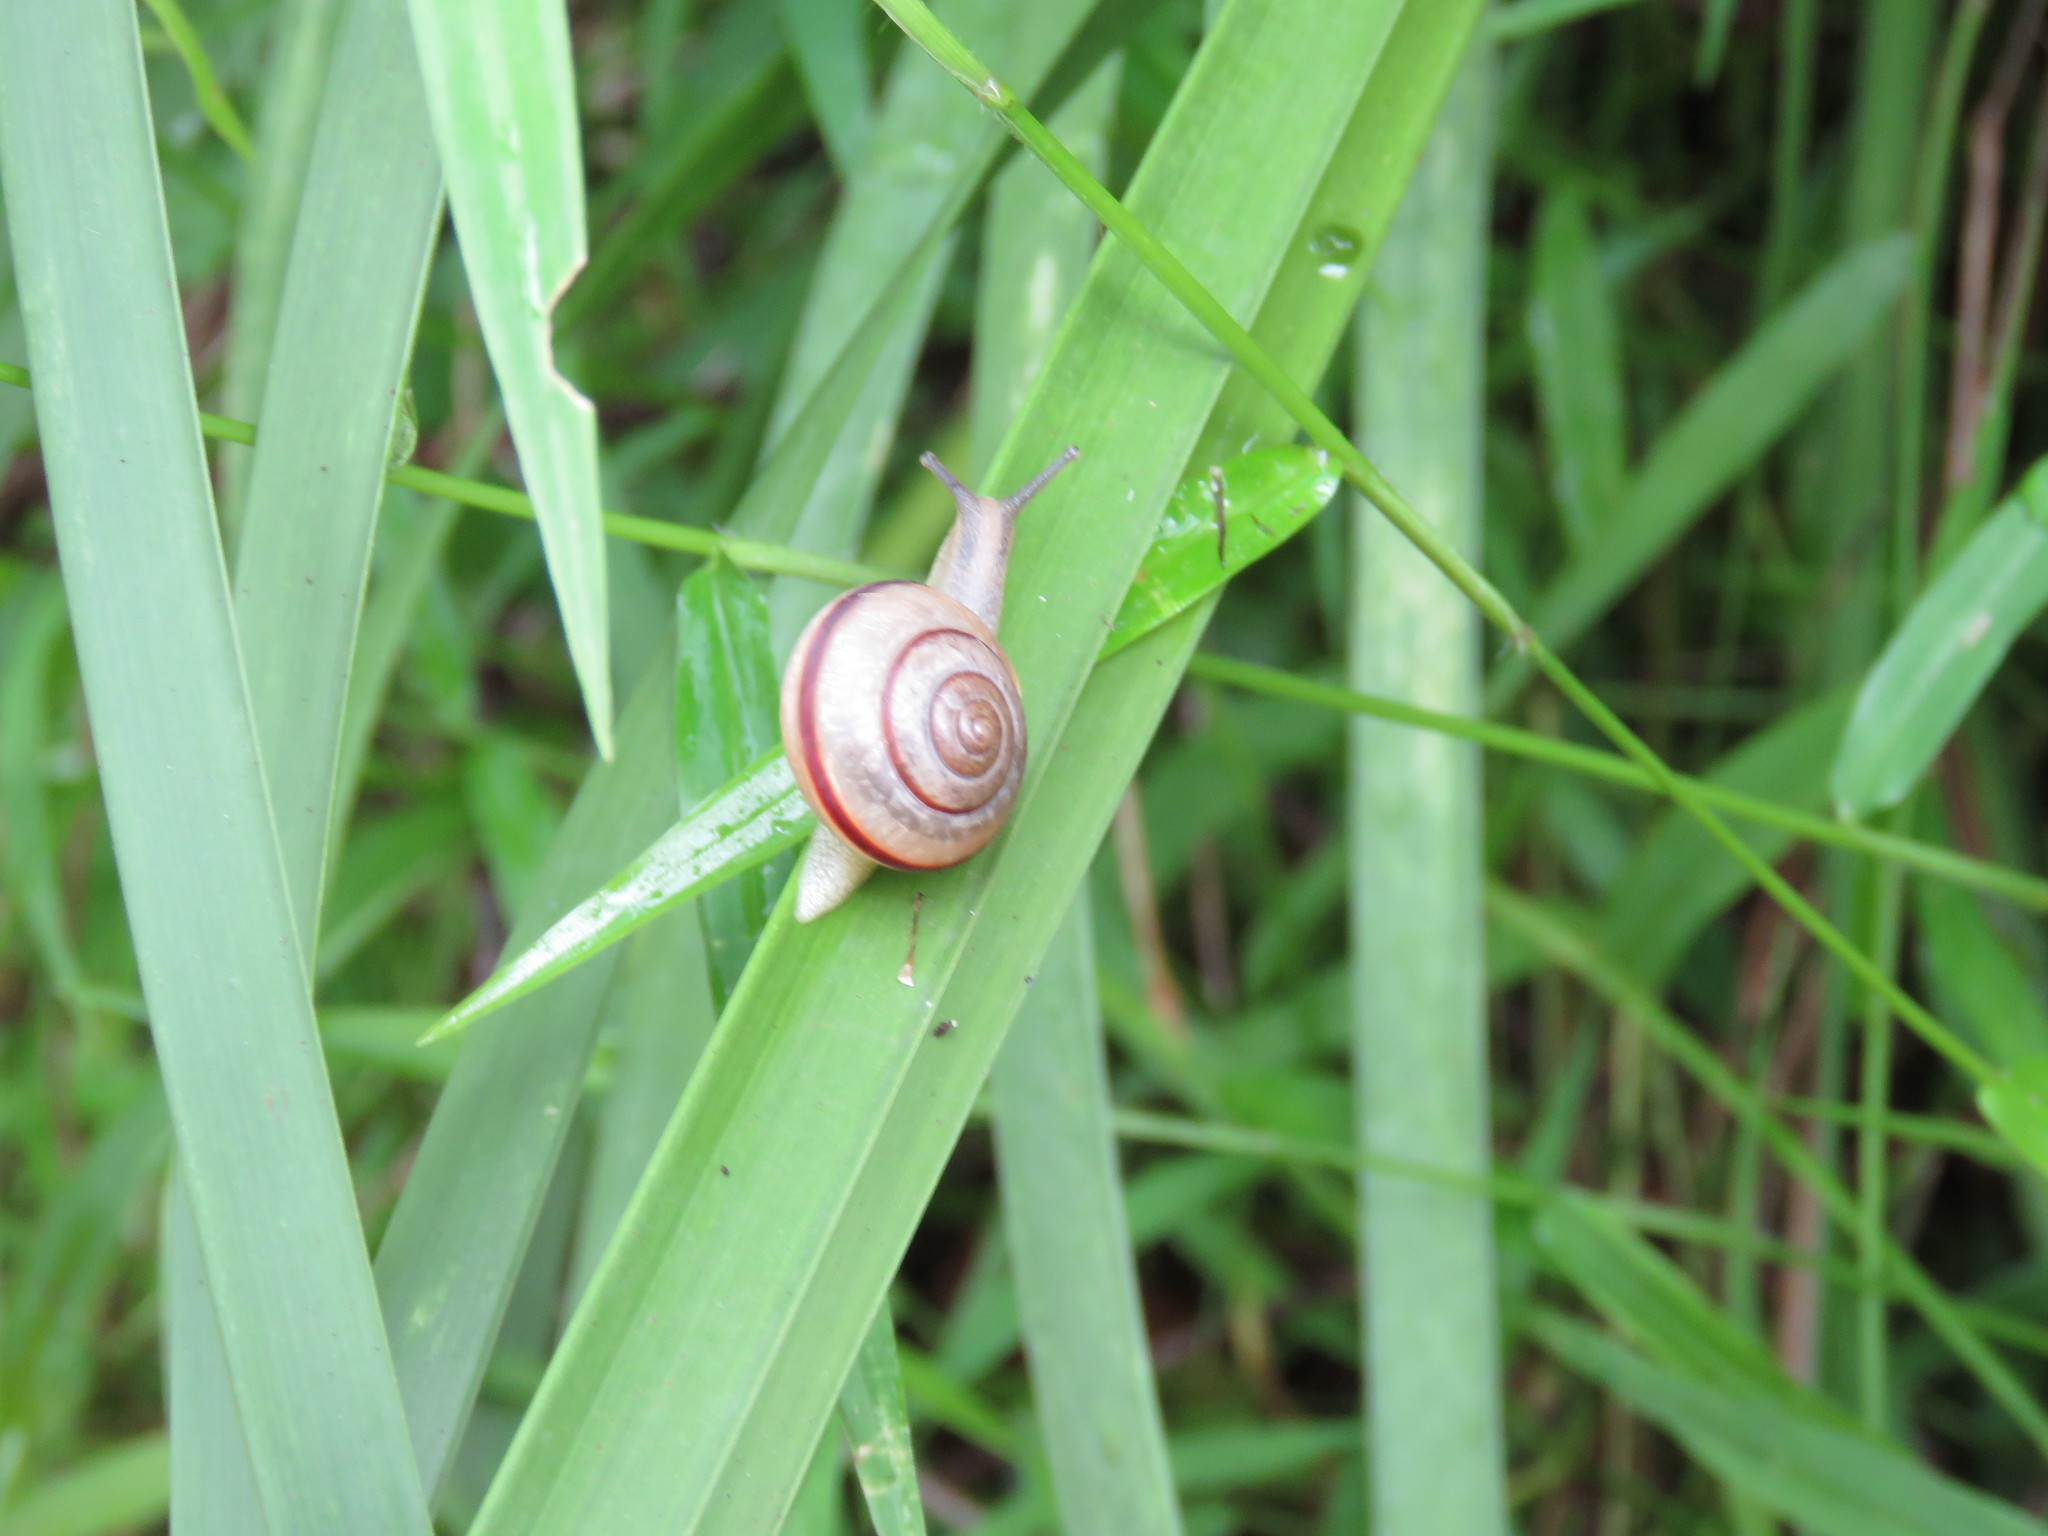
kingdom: Animalia
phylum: Mollusca
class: Gastropoda
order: Stylommatophora
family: Camaenidae
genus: Bradybaena
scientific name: Bradybaena similaris
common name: Asian trampsnail
